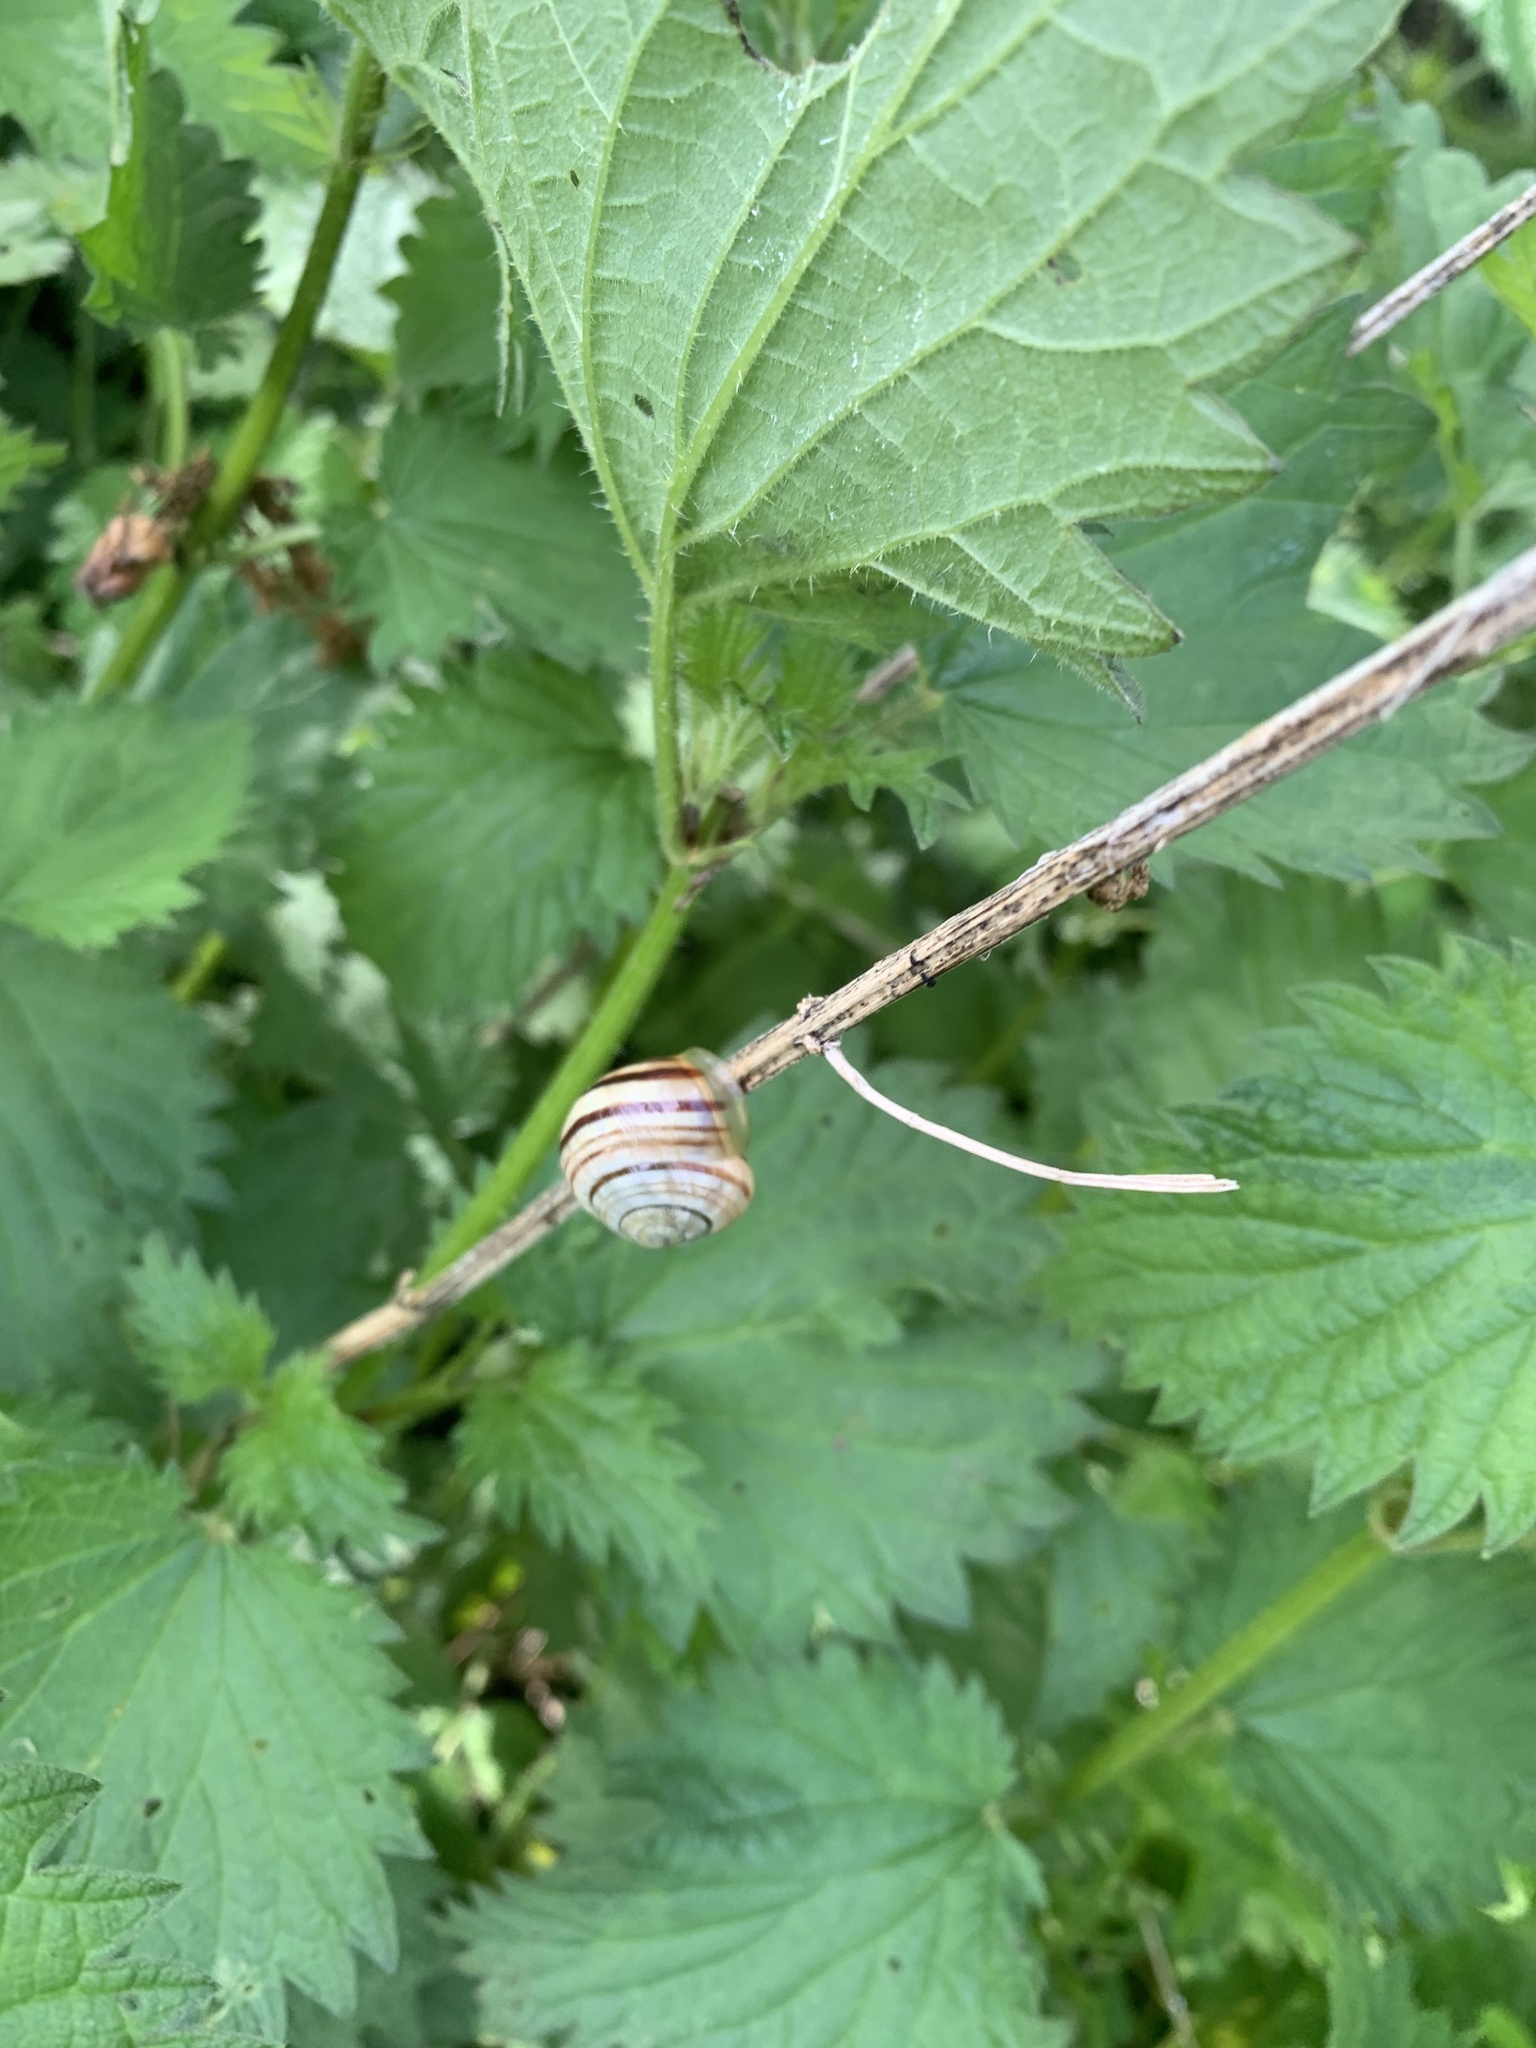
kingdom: Animalia
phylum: Mollusca
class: Gastropoda
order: Stylommatophora
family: Helicidae
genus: Cepaea
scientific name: Cepaea hortensis
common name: White-lip gardensnail
